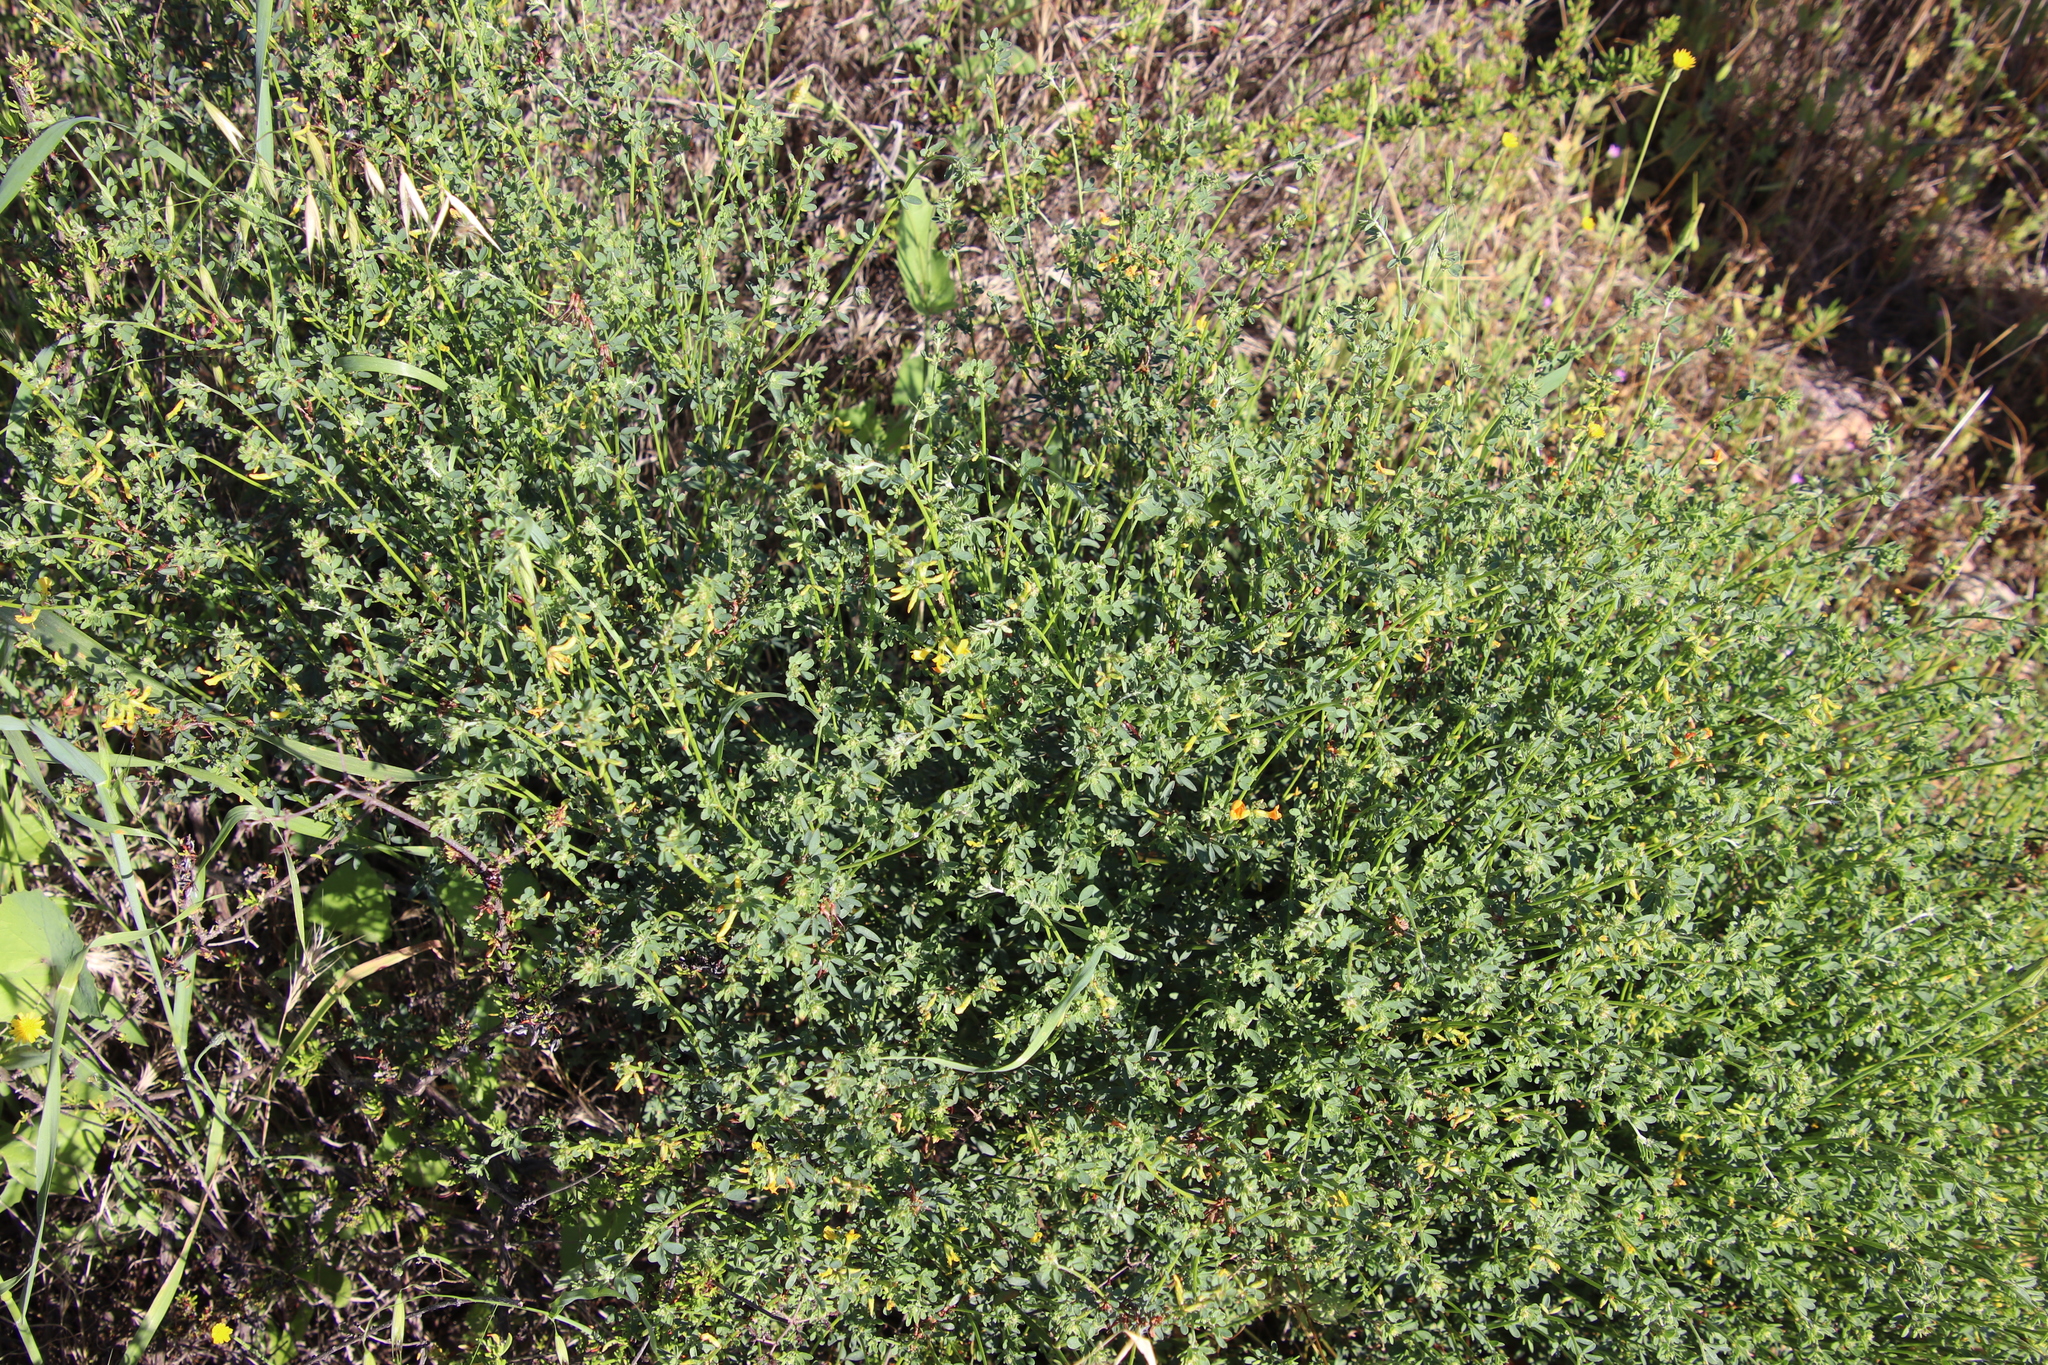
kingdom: Plantae
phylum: Tracheophyta
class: Magnoliopsida
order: Fabales
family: Fabaceae
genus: Acmispon
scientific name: Acmispon glaber
